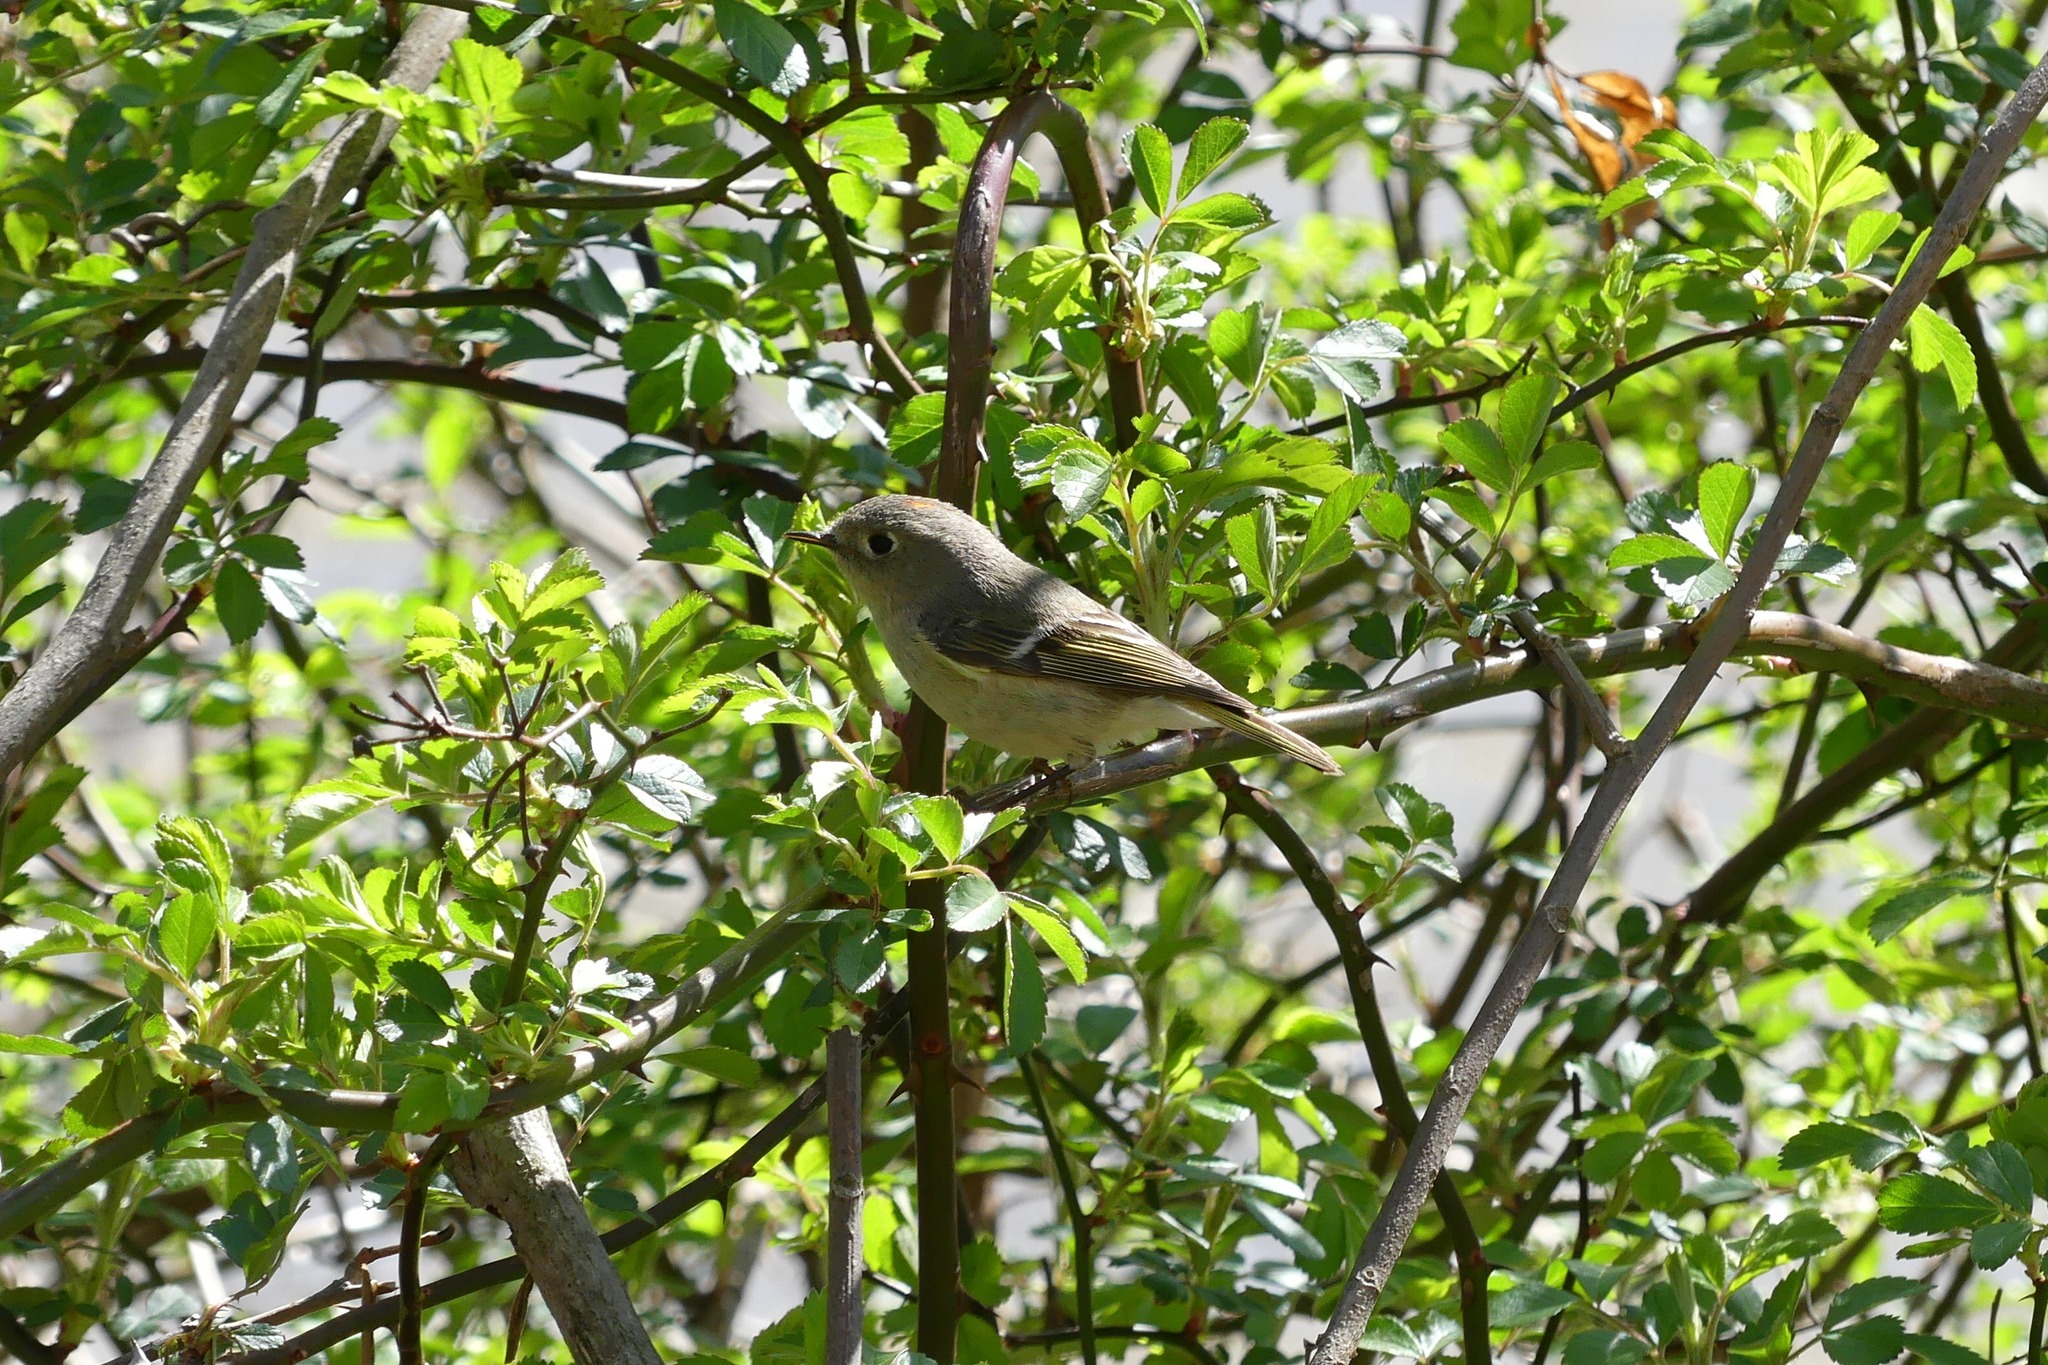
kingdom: Animalia
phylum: Chordata
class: Aves
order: Passeriformes
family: Regulidae
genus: Regulus
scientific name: Regulus calendula
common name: Ruby-crowned kinglet
